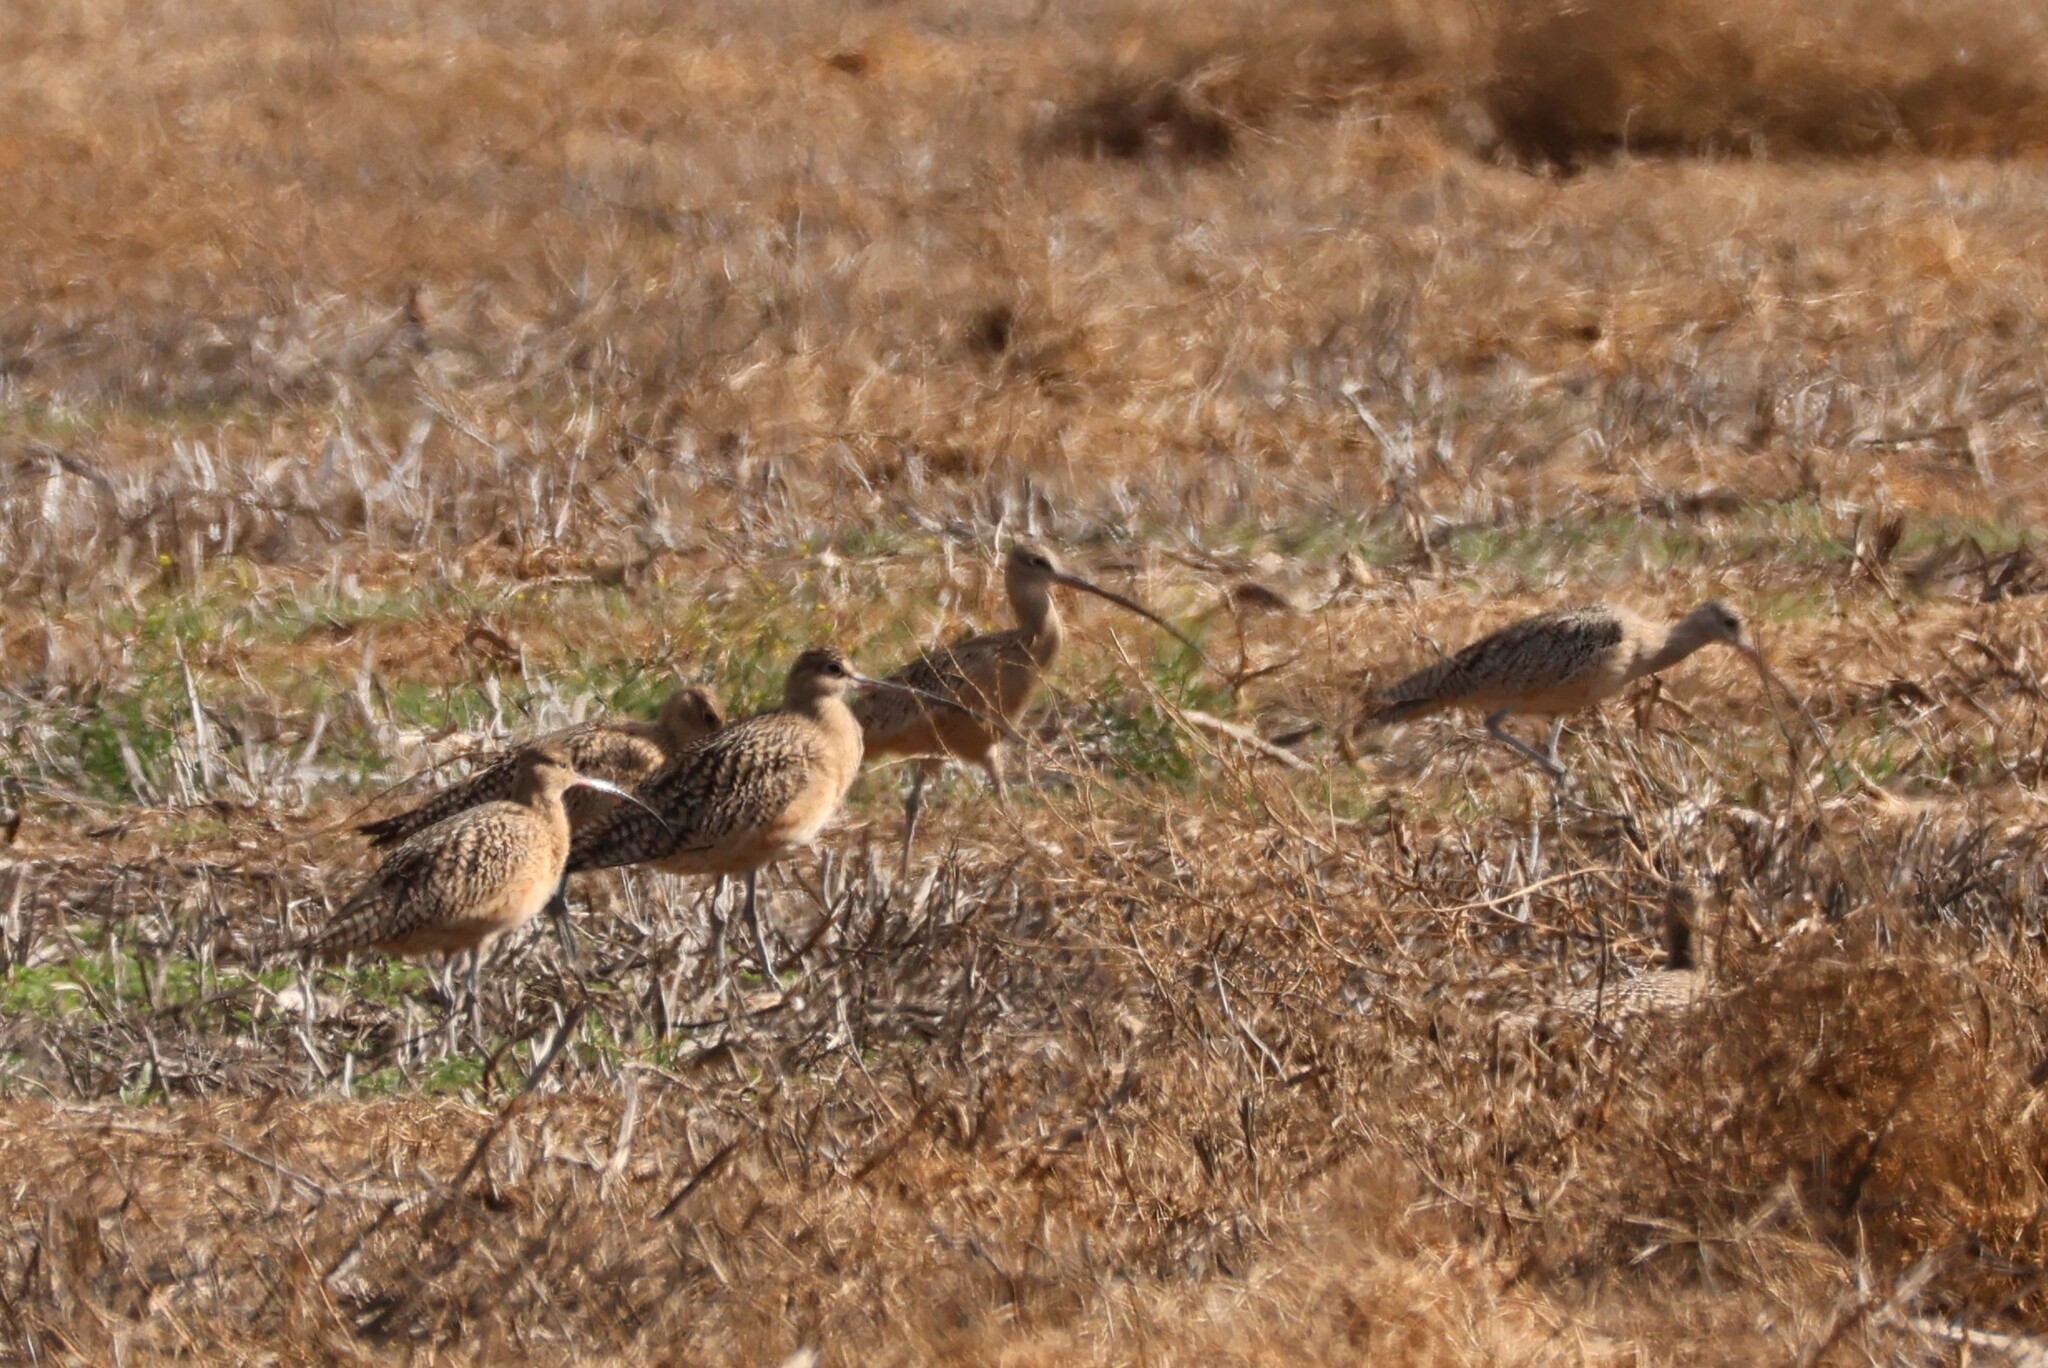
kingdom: Animalia
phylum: Chordata
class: Aves
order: Charadriiformes
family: Scolopacidae
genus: Numenius
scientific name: Numenius americanus
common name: Long-billed curlew
